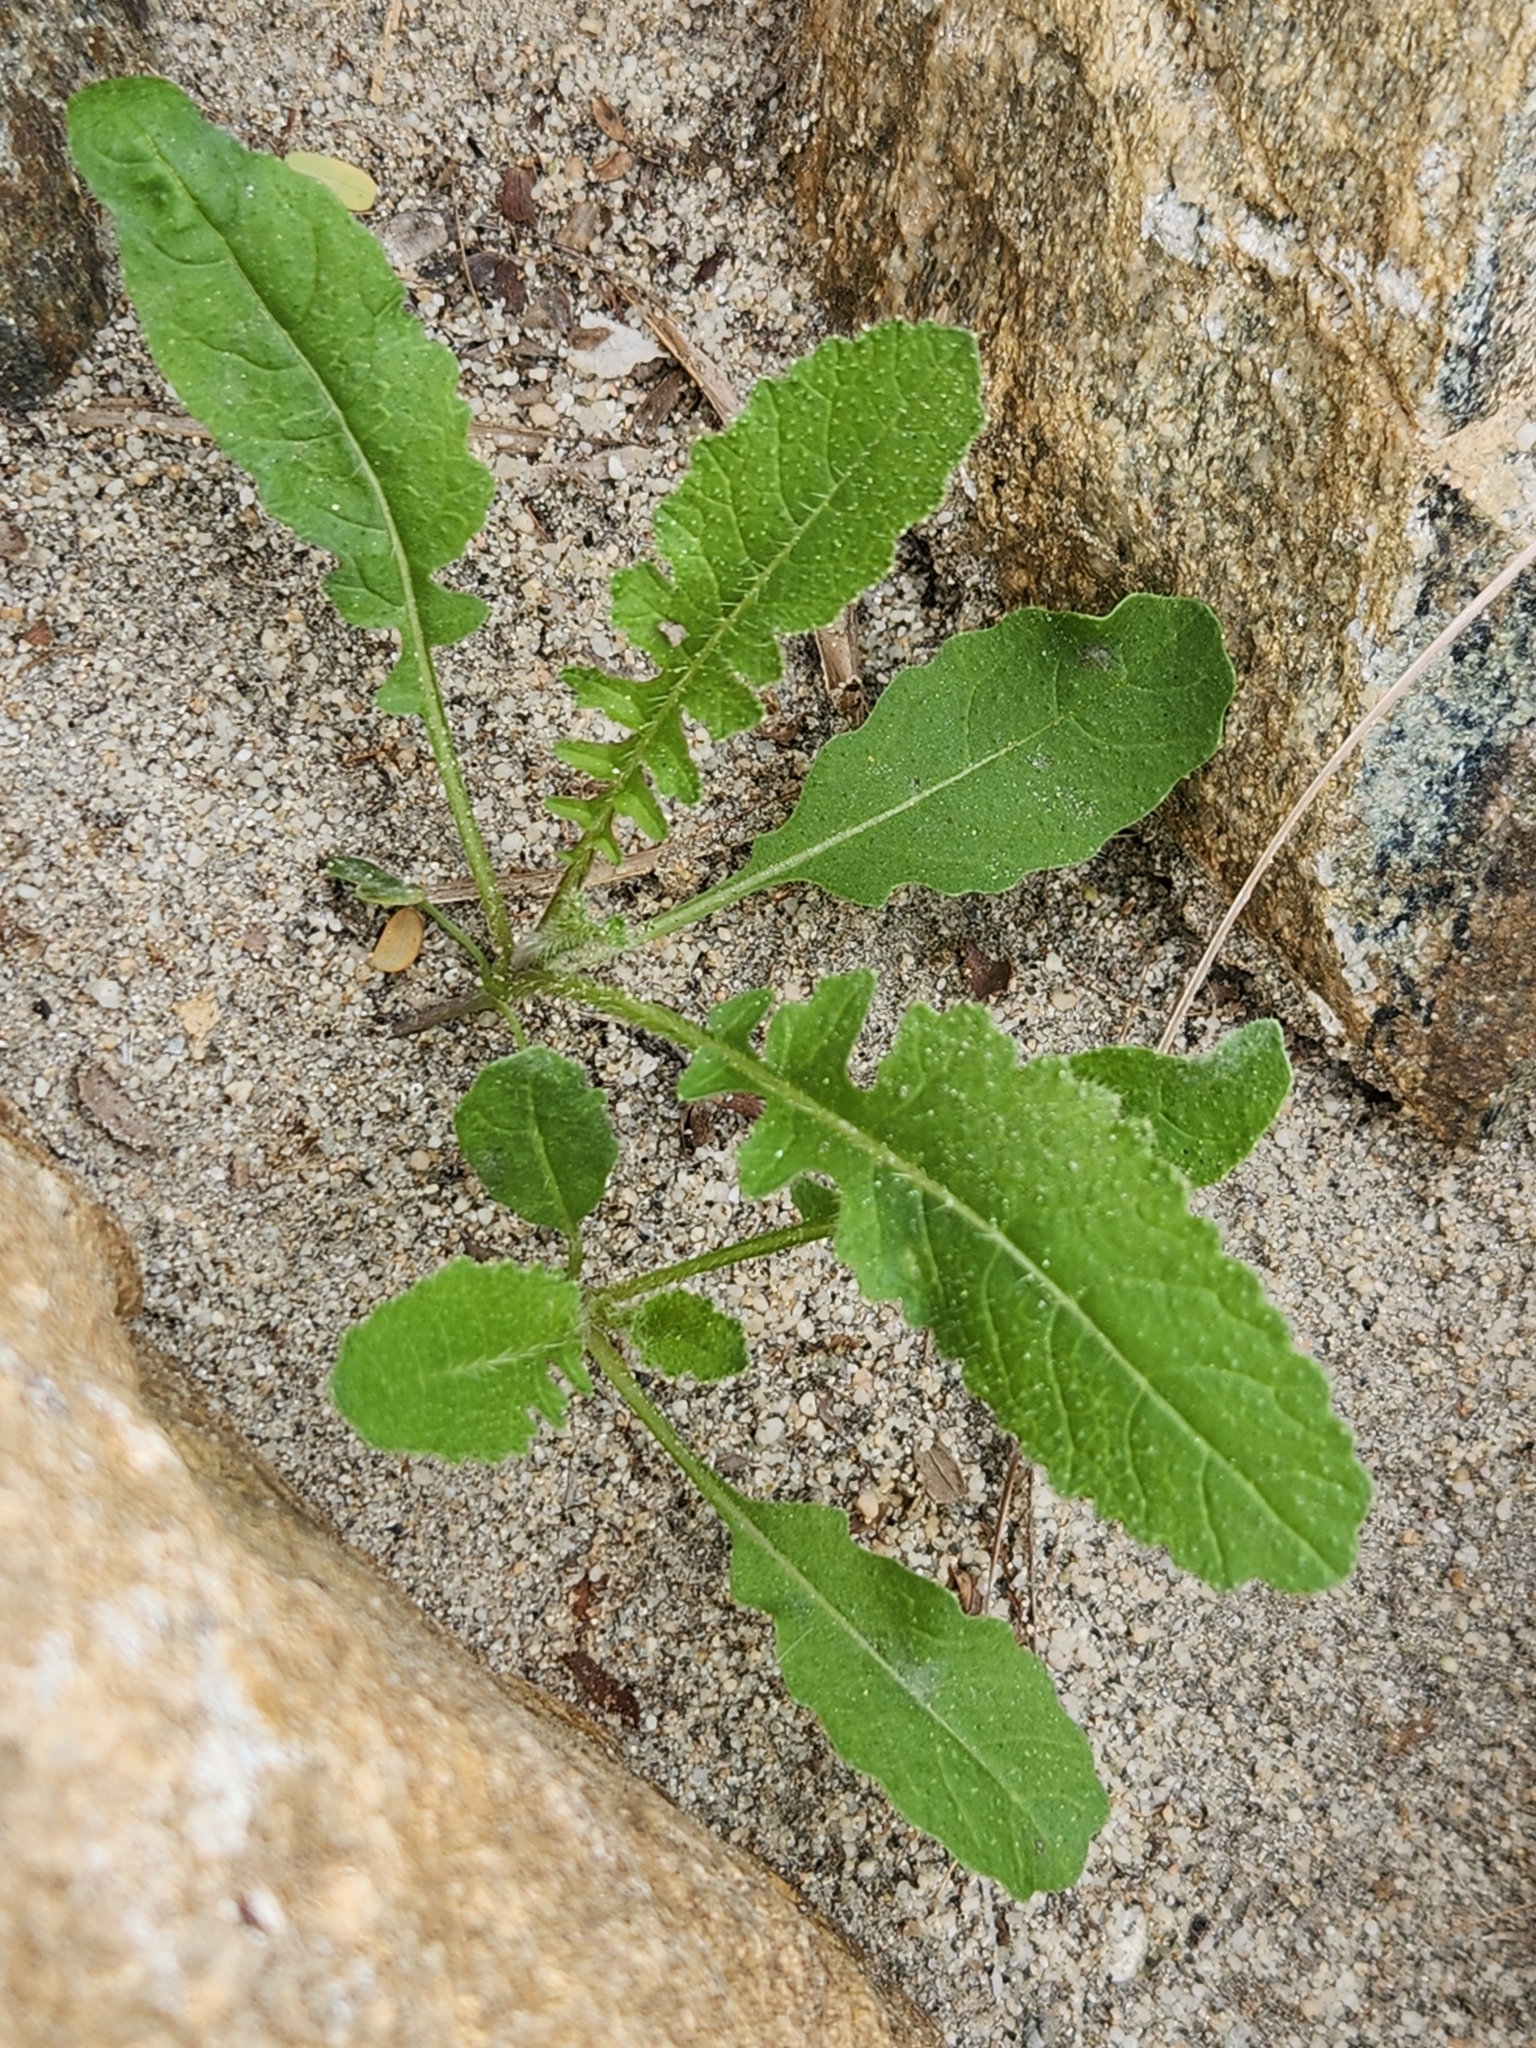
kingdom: Plantae
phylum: Tracheophyta
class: Magnoliopsida
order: Brassicales
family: Brassicaceae
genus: Brassica
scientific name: Brassica tournefortii
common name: Pale cabbage
